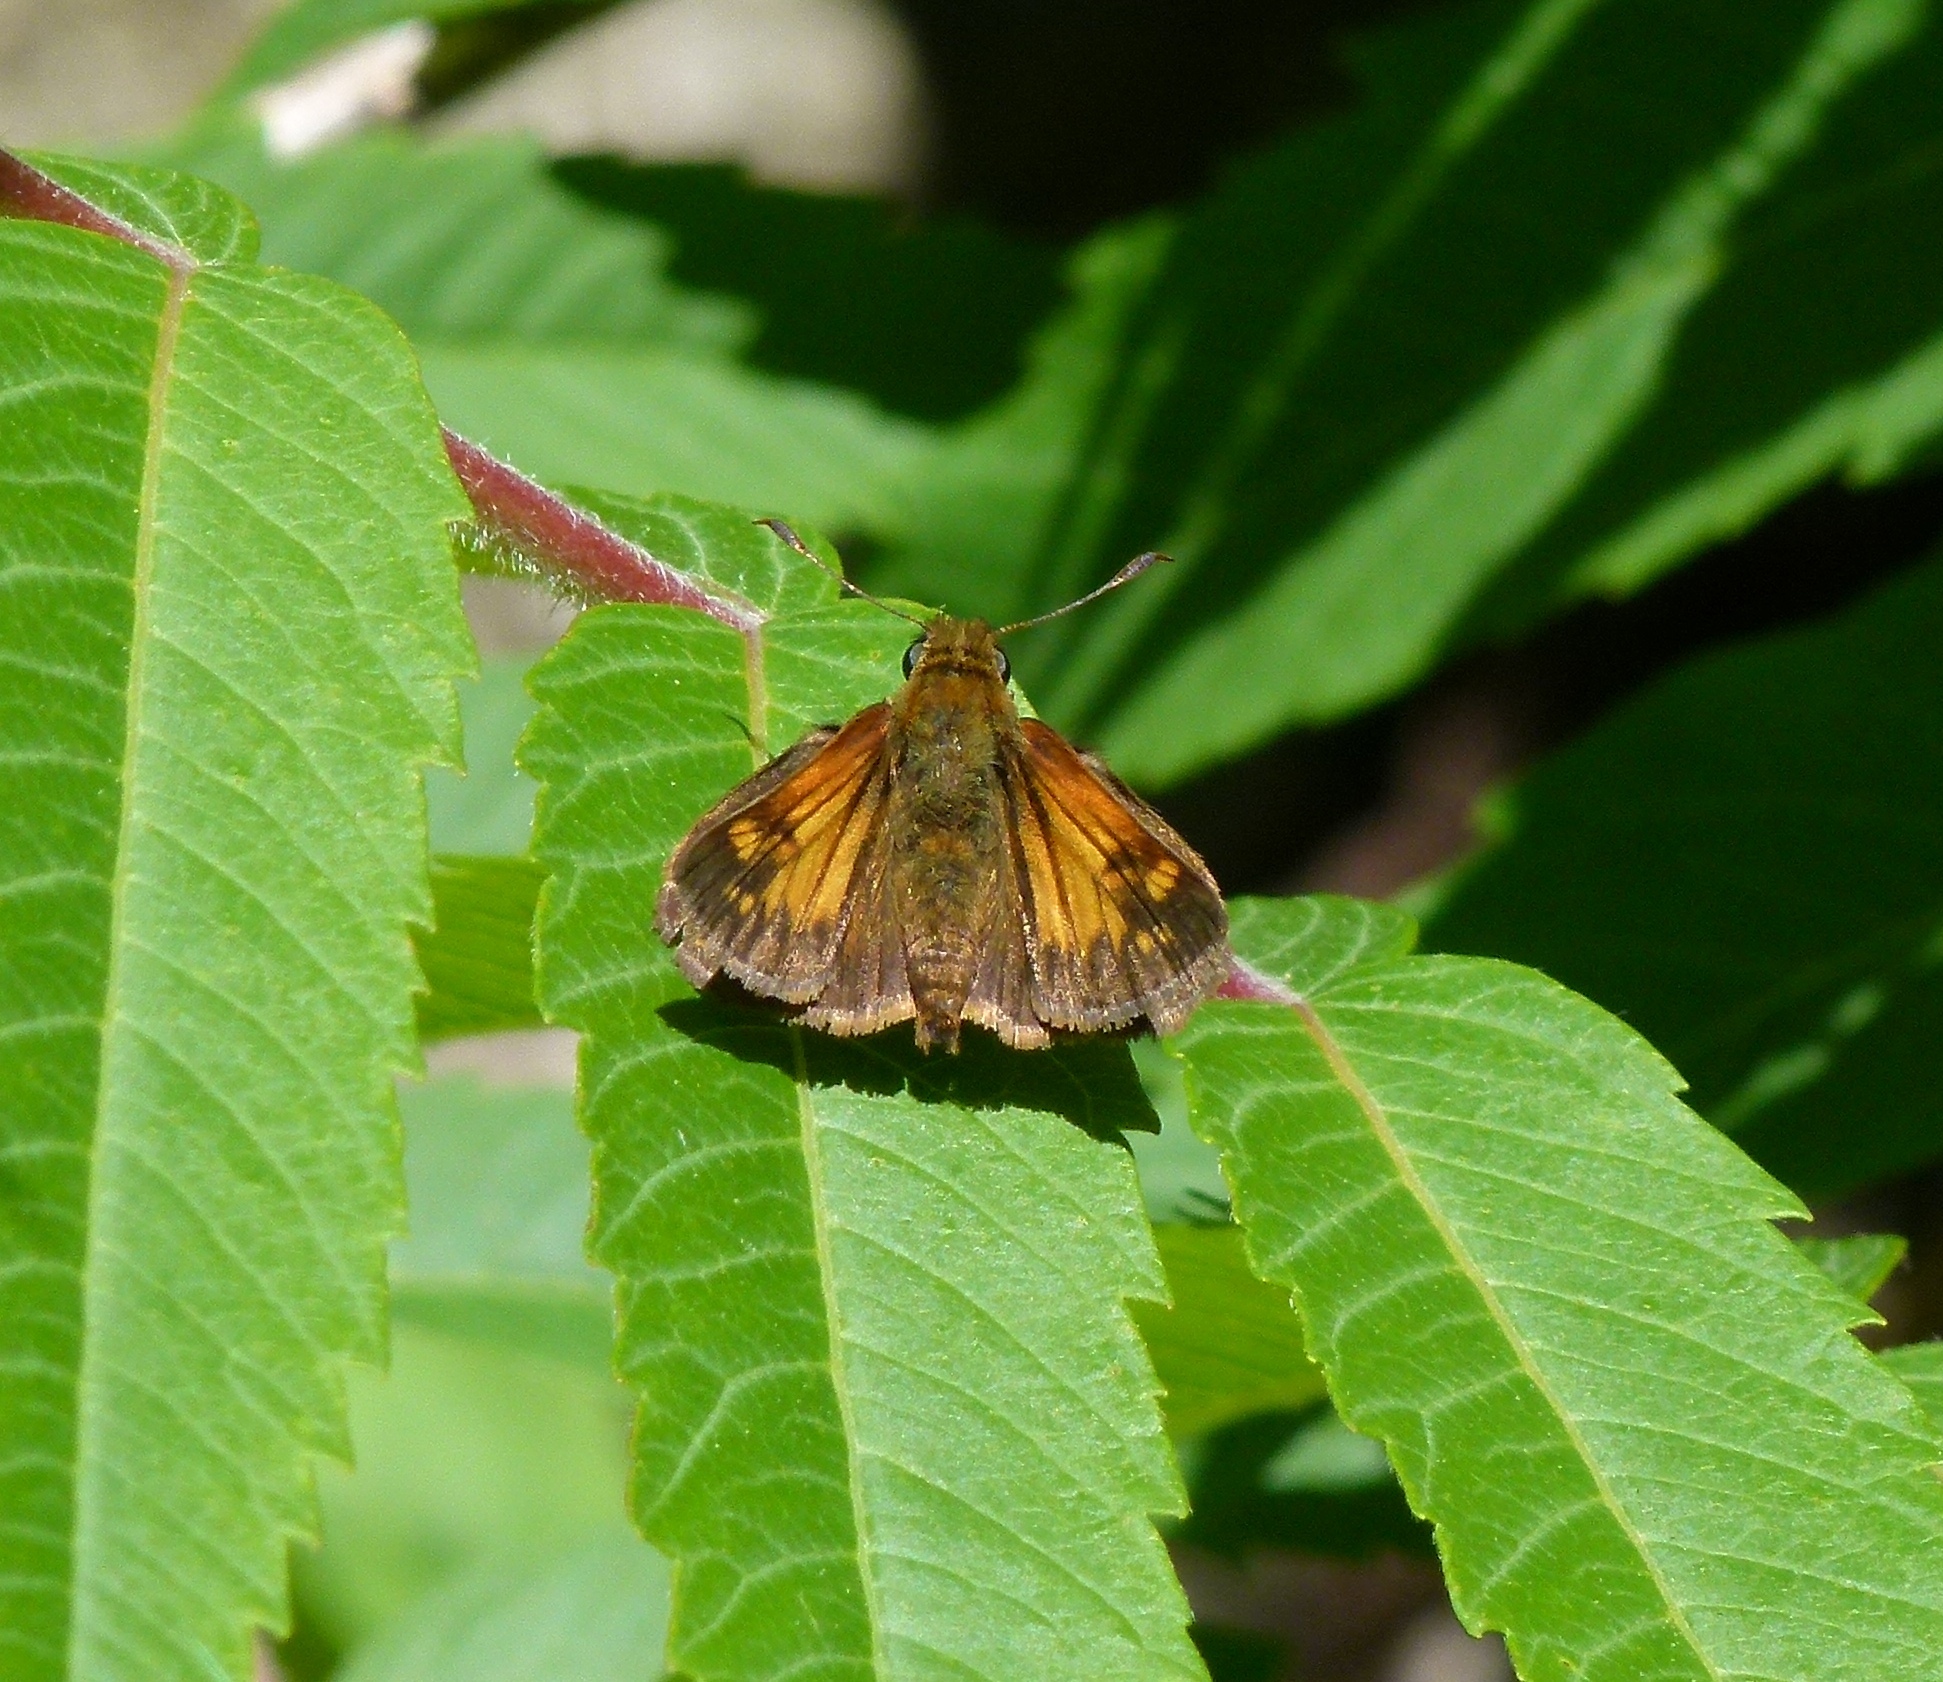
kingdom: Animalia
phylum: Arthropoda
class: Insecta
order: Lepidoptera
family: Hesperiidae
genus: Lon
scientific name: Lon hobomok
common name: Hobomok skipper
